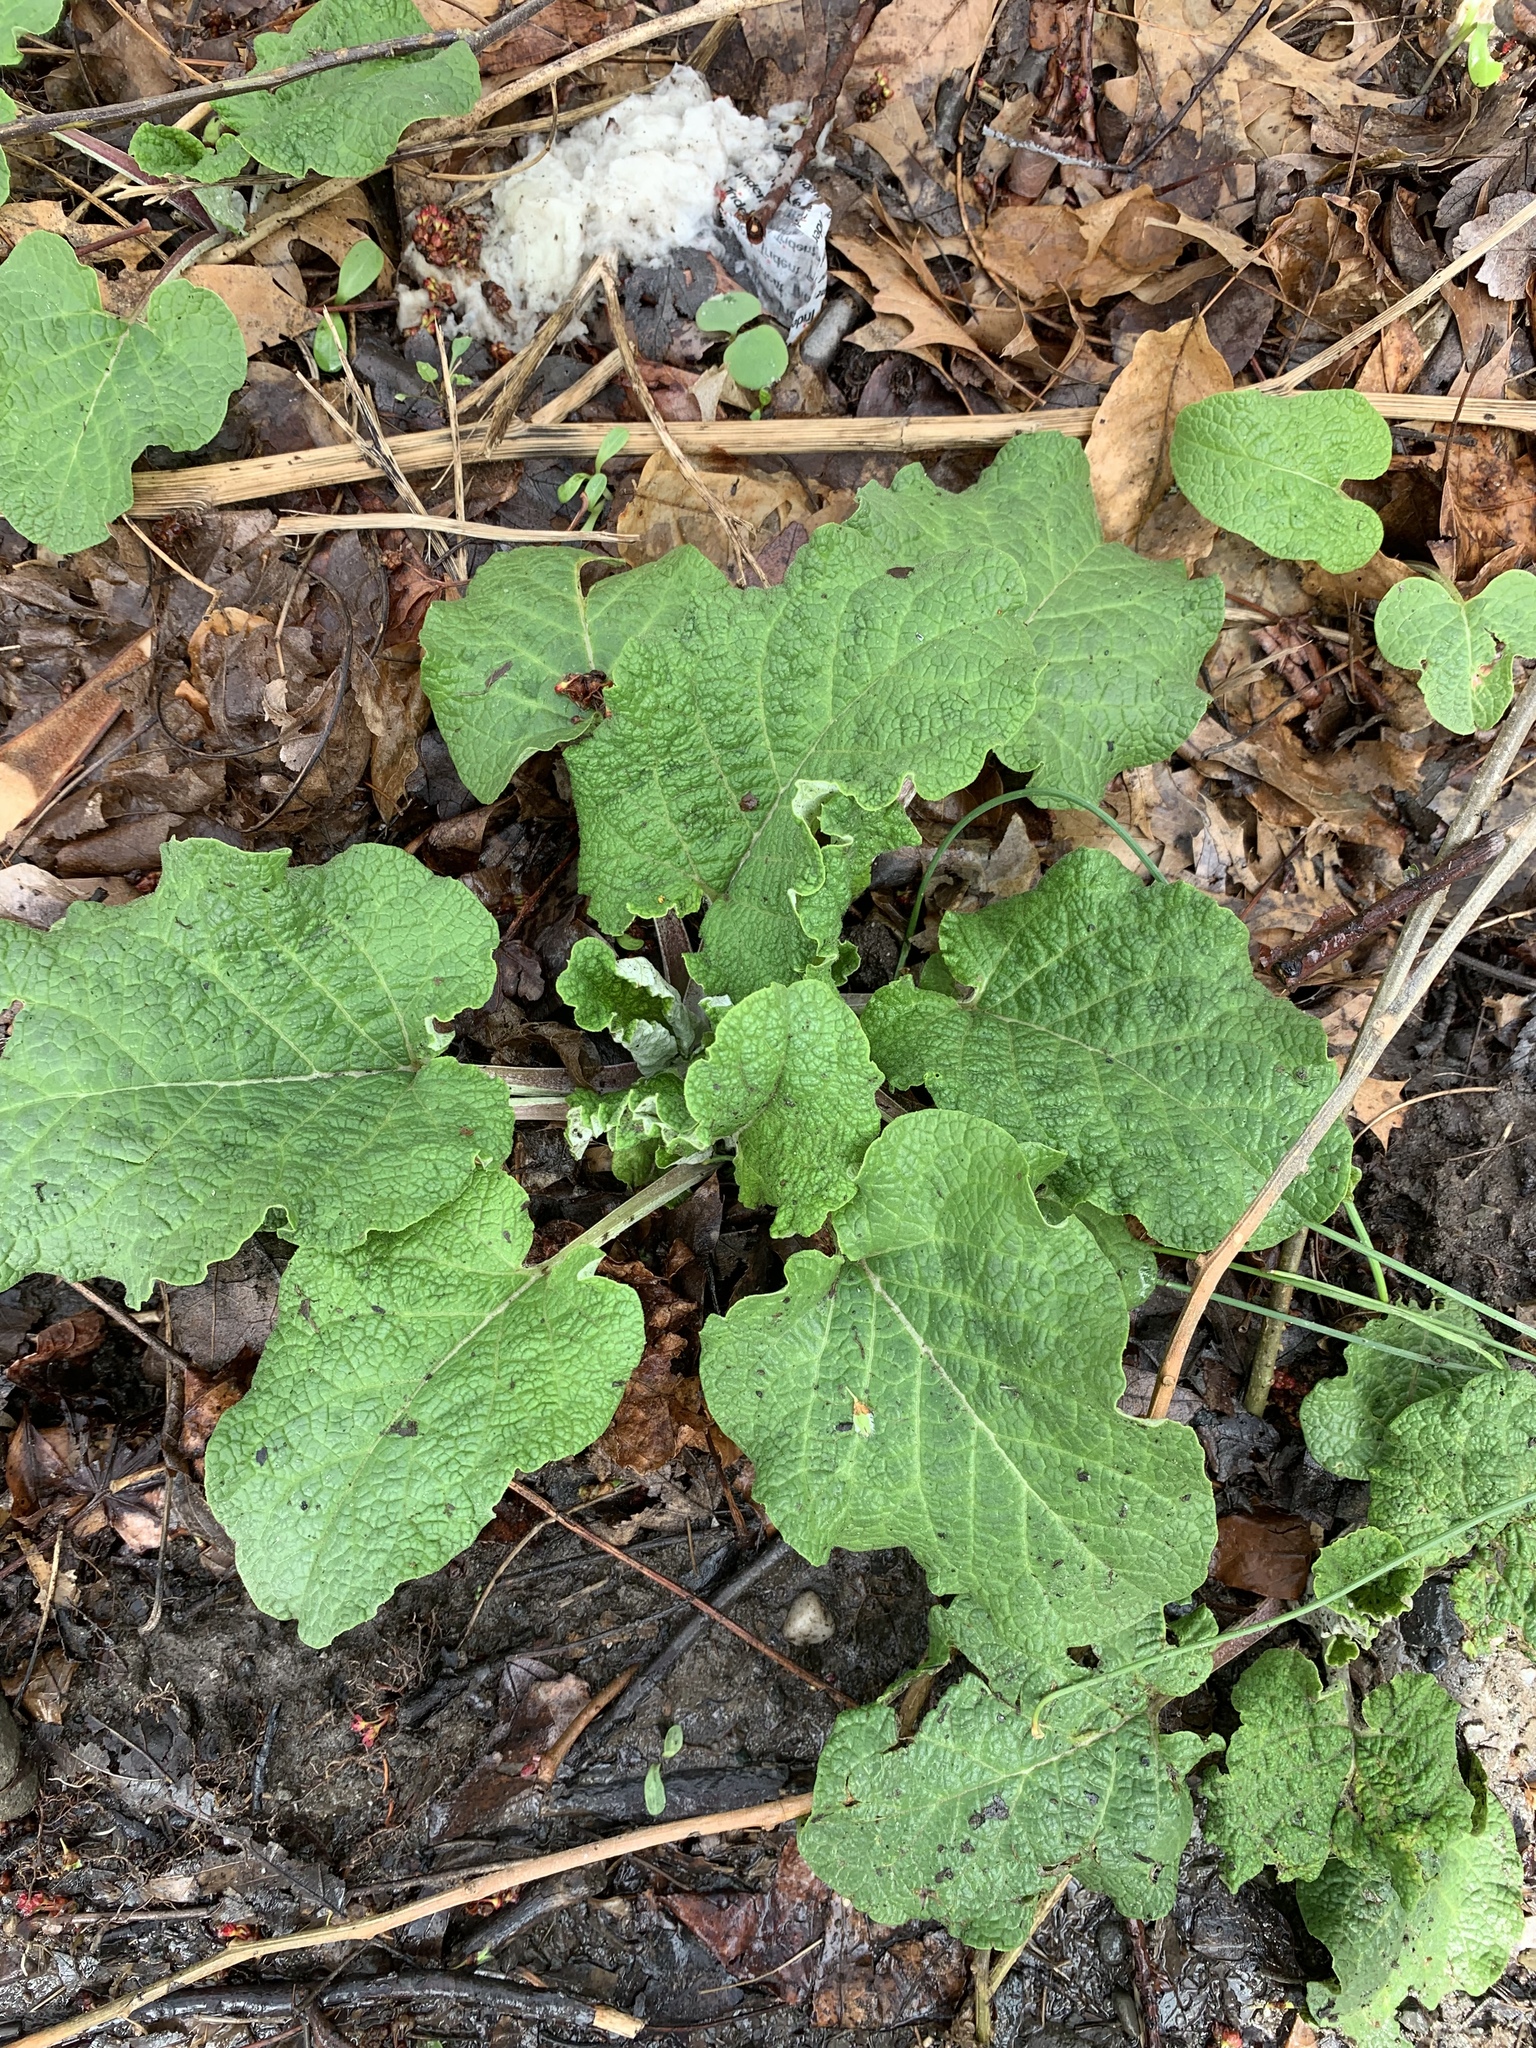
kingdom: Plantae
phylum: Tracheophyta
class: Magnoliopsida
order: Asterales
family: Asteraceae
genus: Arctium
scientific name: Arctium
